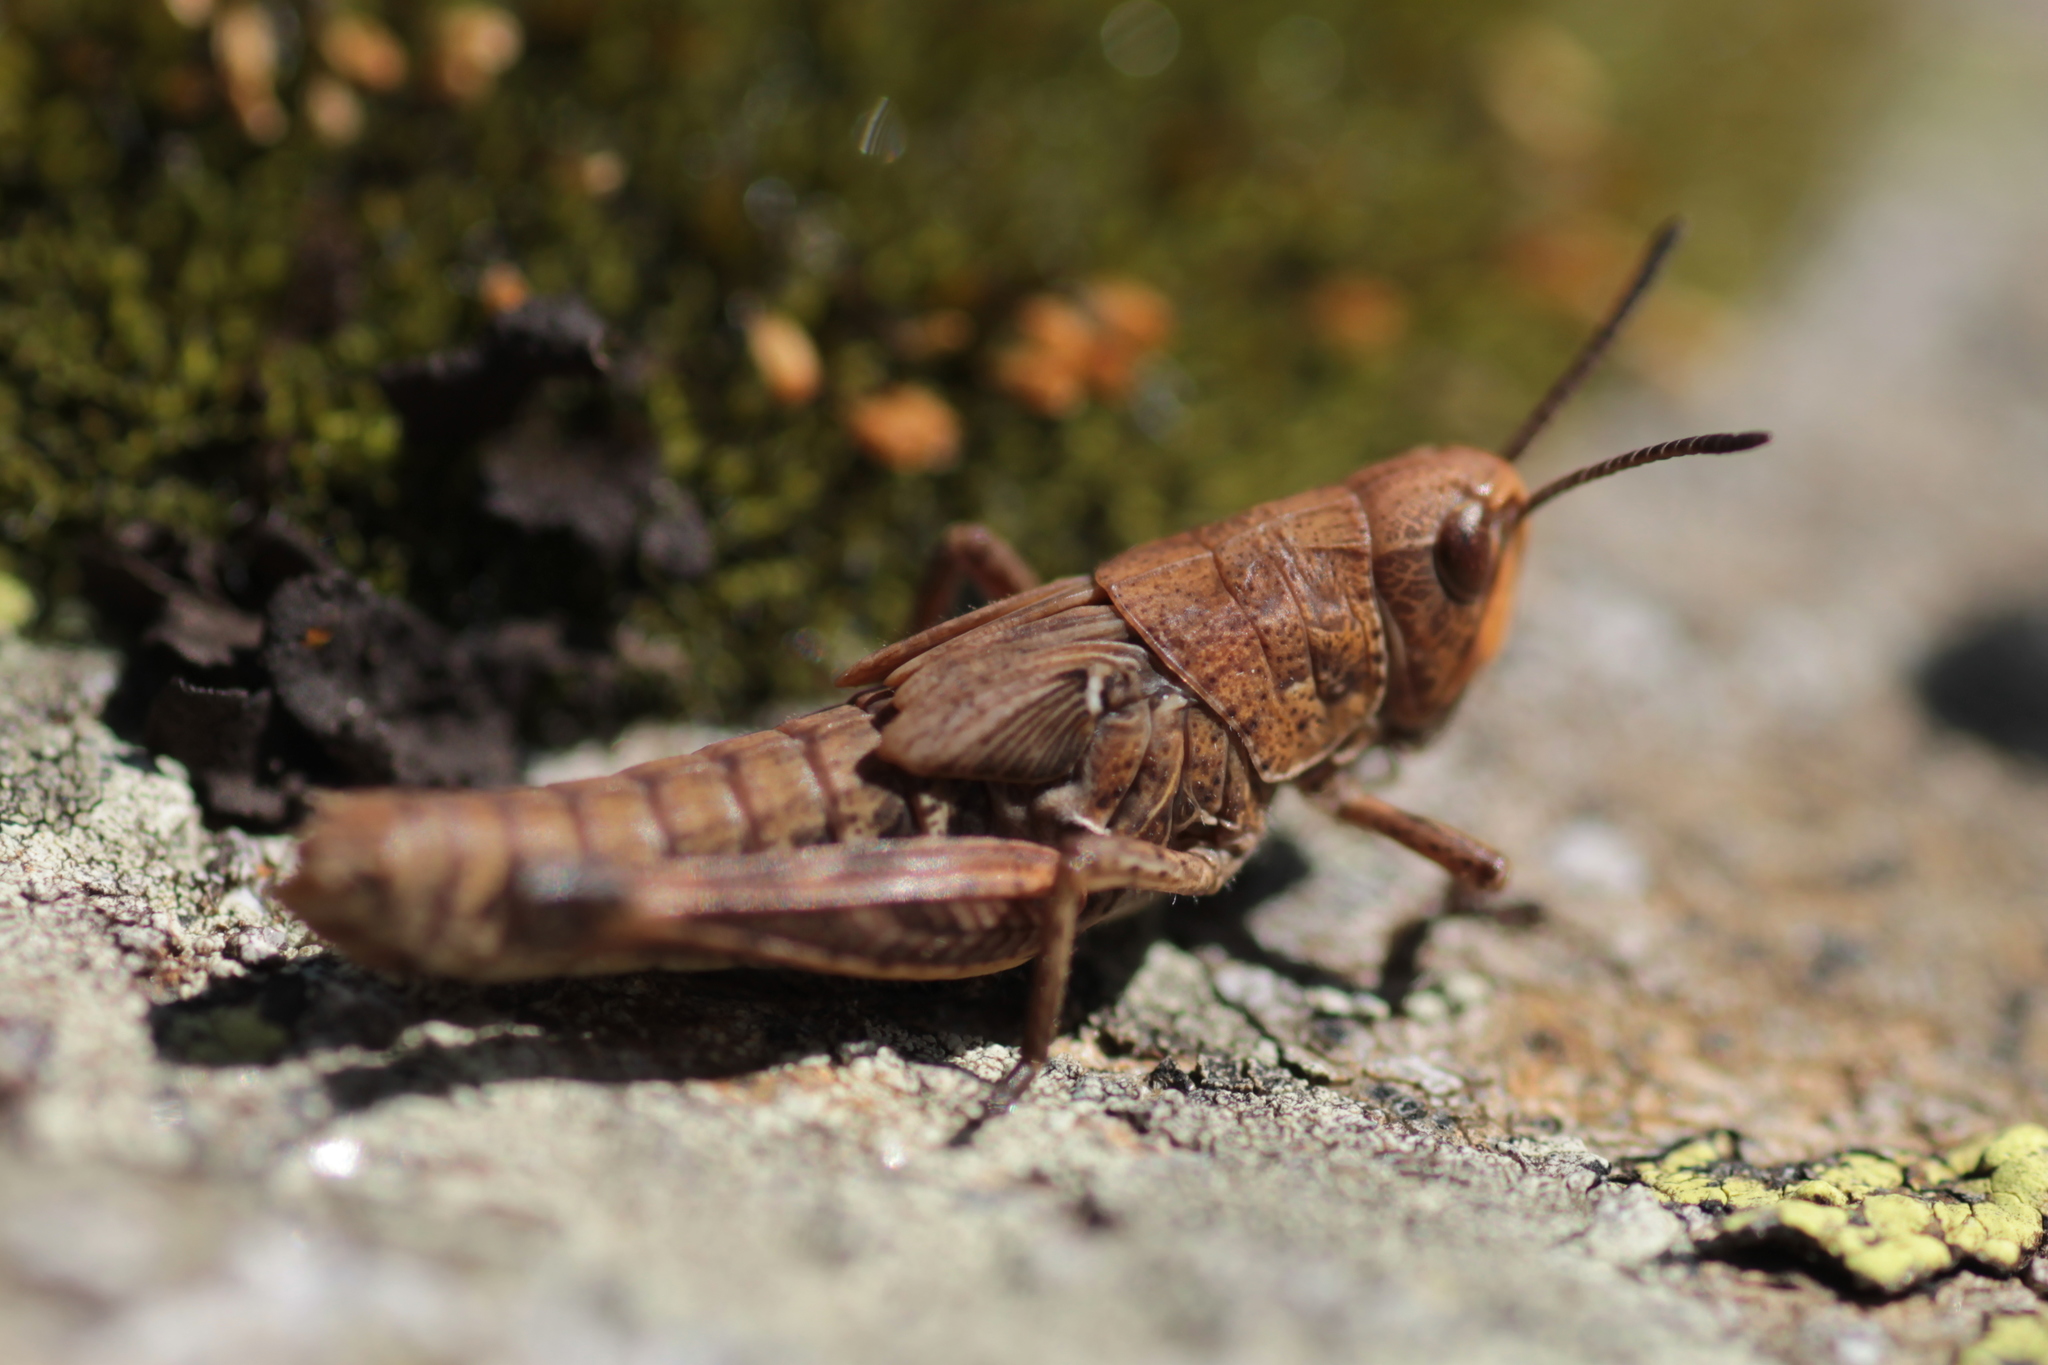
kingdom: Animalia
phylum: Arthropoda
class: Insecta
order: Orthoptera
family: Acrididae
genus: Gomphocerus
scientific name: Gomphocerus sibiricus
